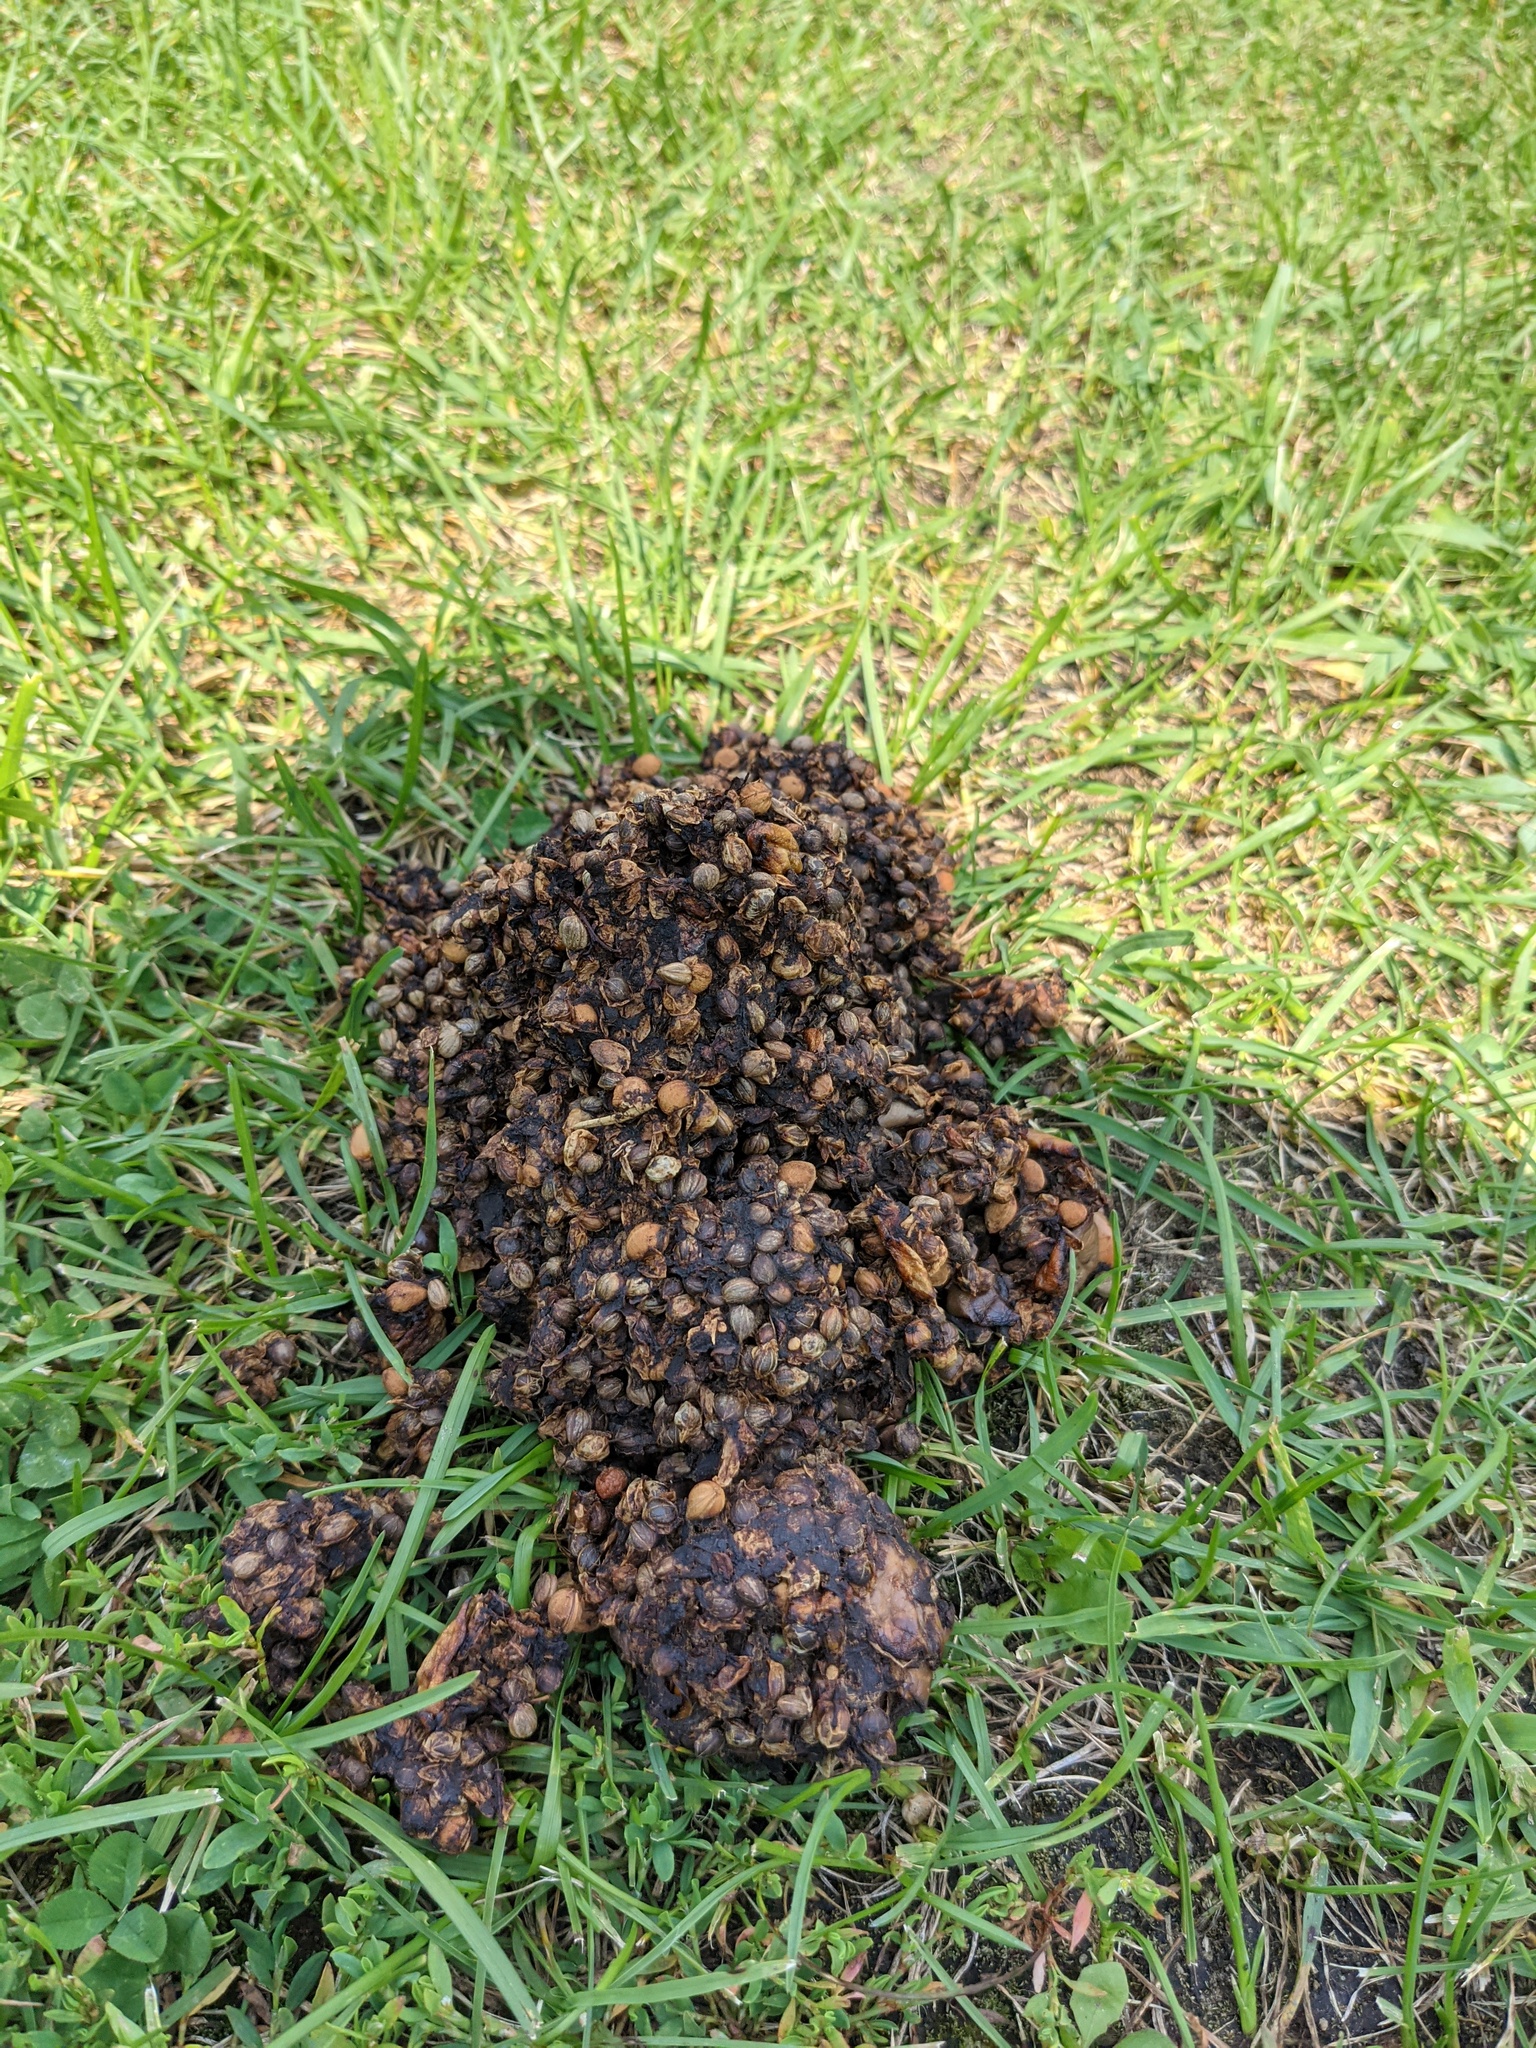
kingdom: Animalia
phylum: Chordata
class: Mammalia
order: Carnivora
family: Ursidae
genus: Ursus
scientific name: Ursus americanus
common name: American black bear
